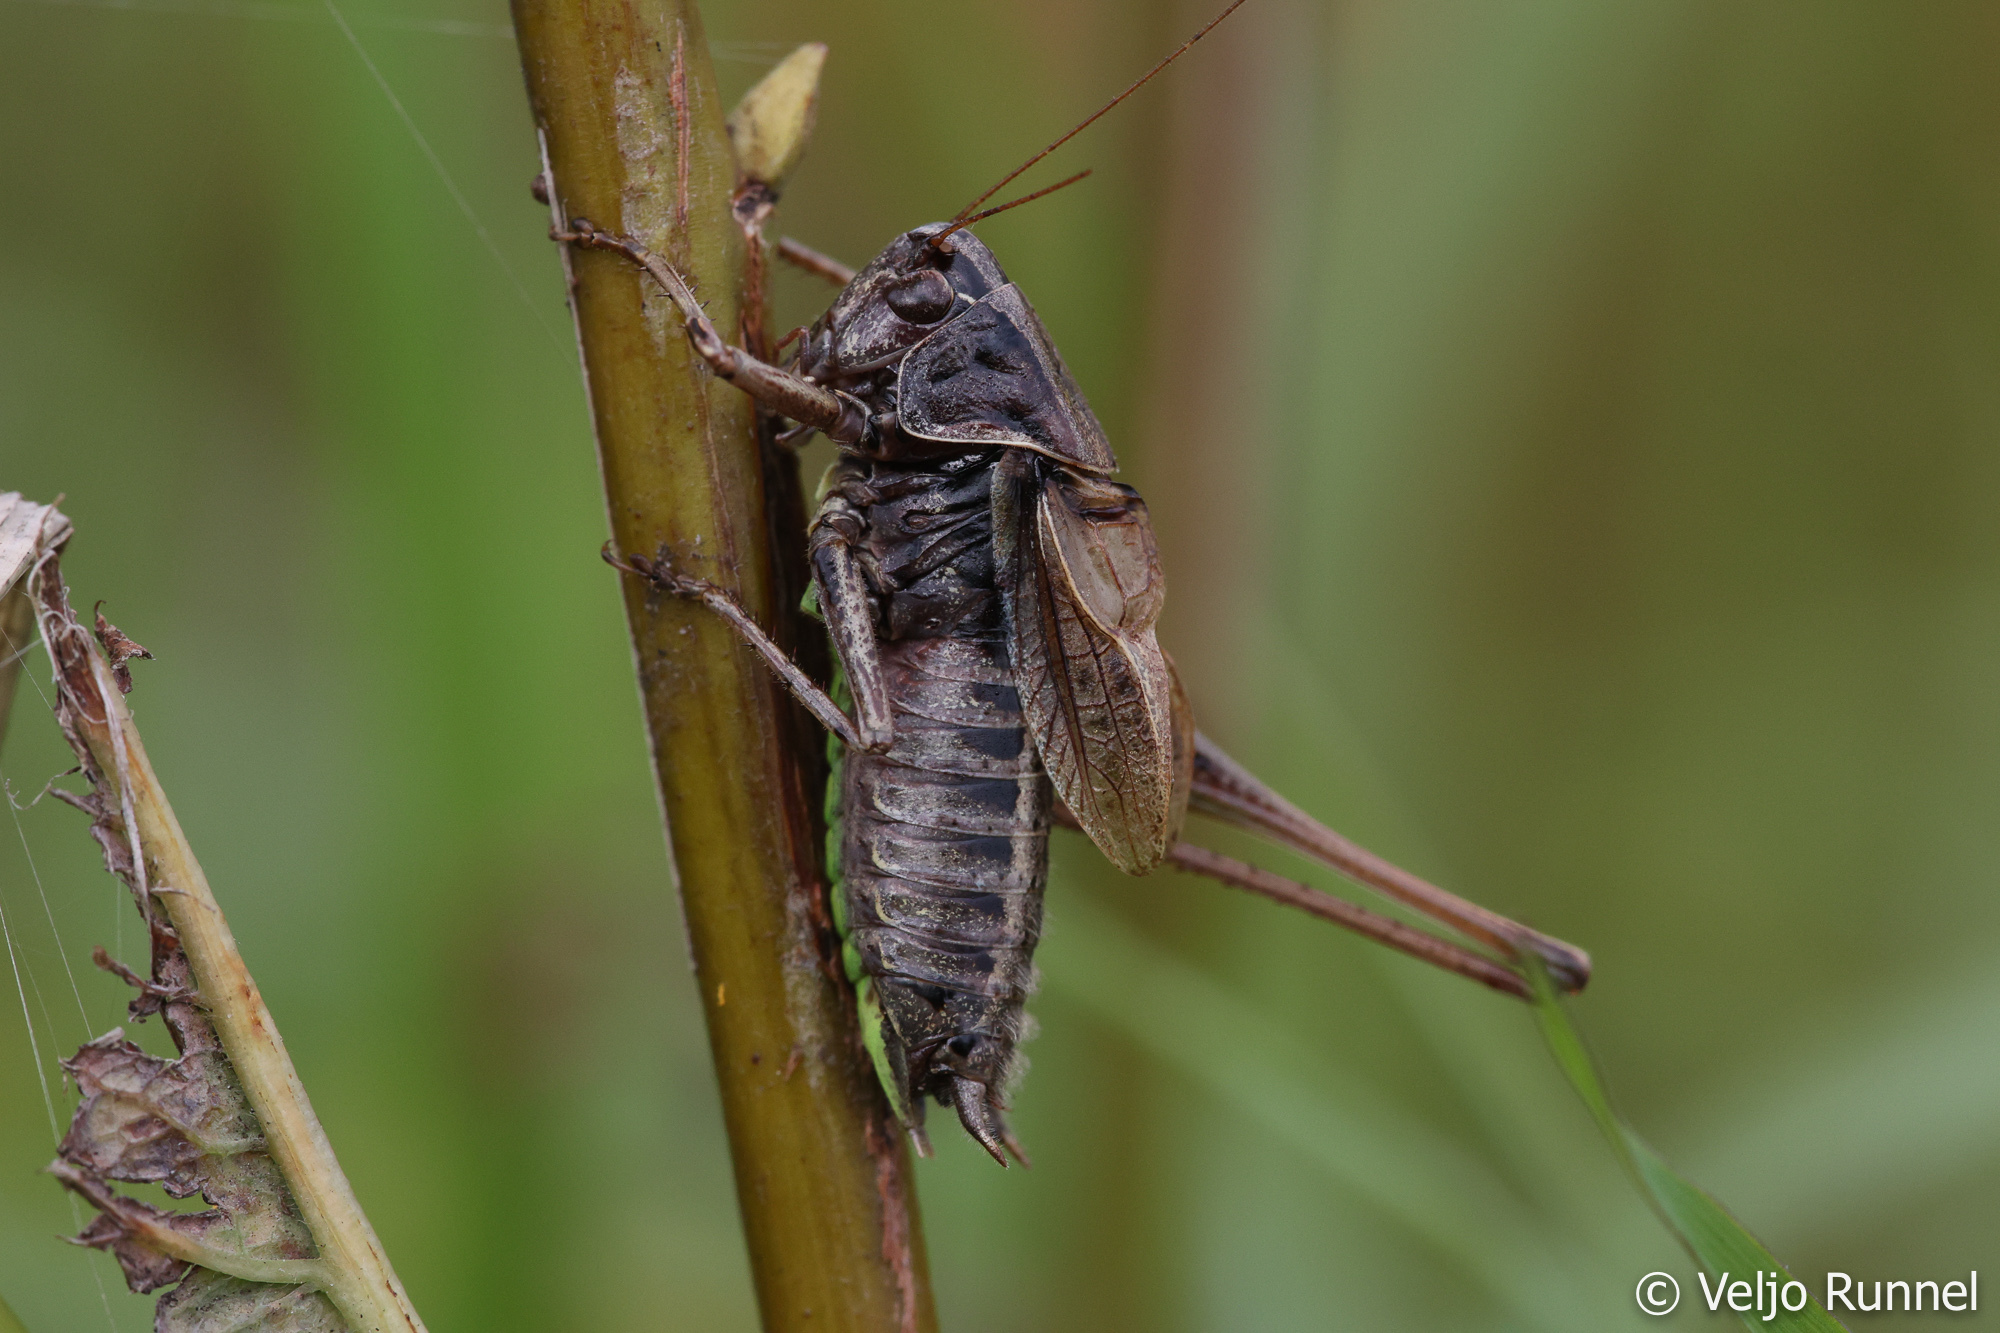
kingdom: Animalia
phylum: Arthropoda
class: Insecta
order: Orthoptera
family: Tettigoniidae
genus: Metrioptera
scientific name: Metrioptera brachyptera
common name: Bog bush-cricket
